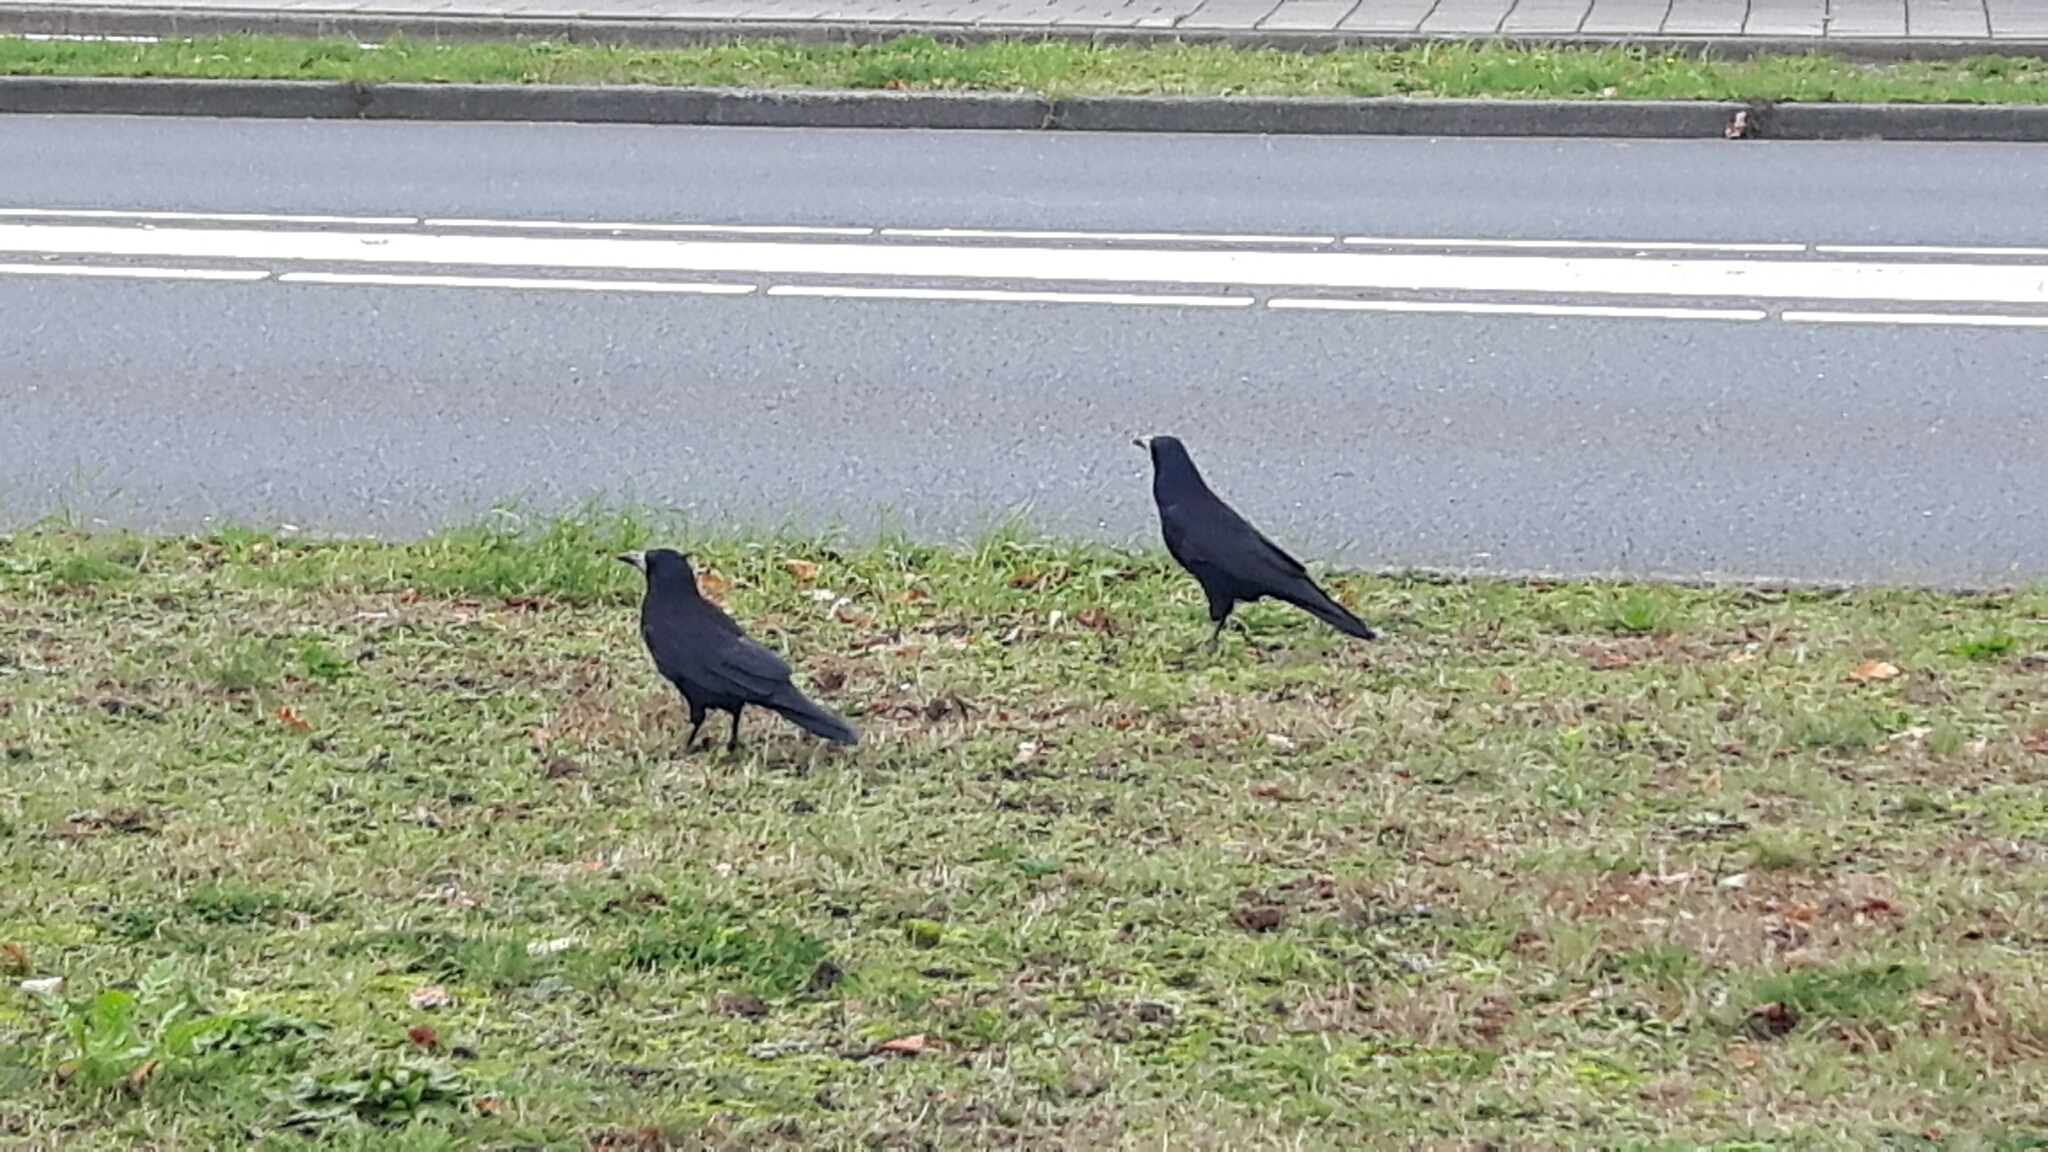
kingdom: Animalia
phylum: Chordata
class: Aves
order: Passeriformes
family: Corvidae
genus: Corvus
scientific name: Corvus frugilegus
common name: Rook
